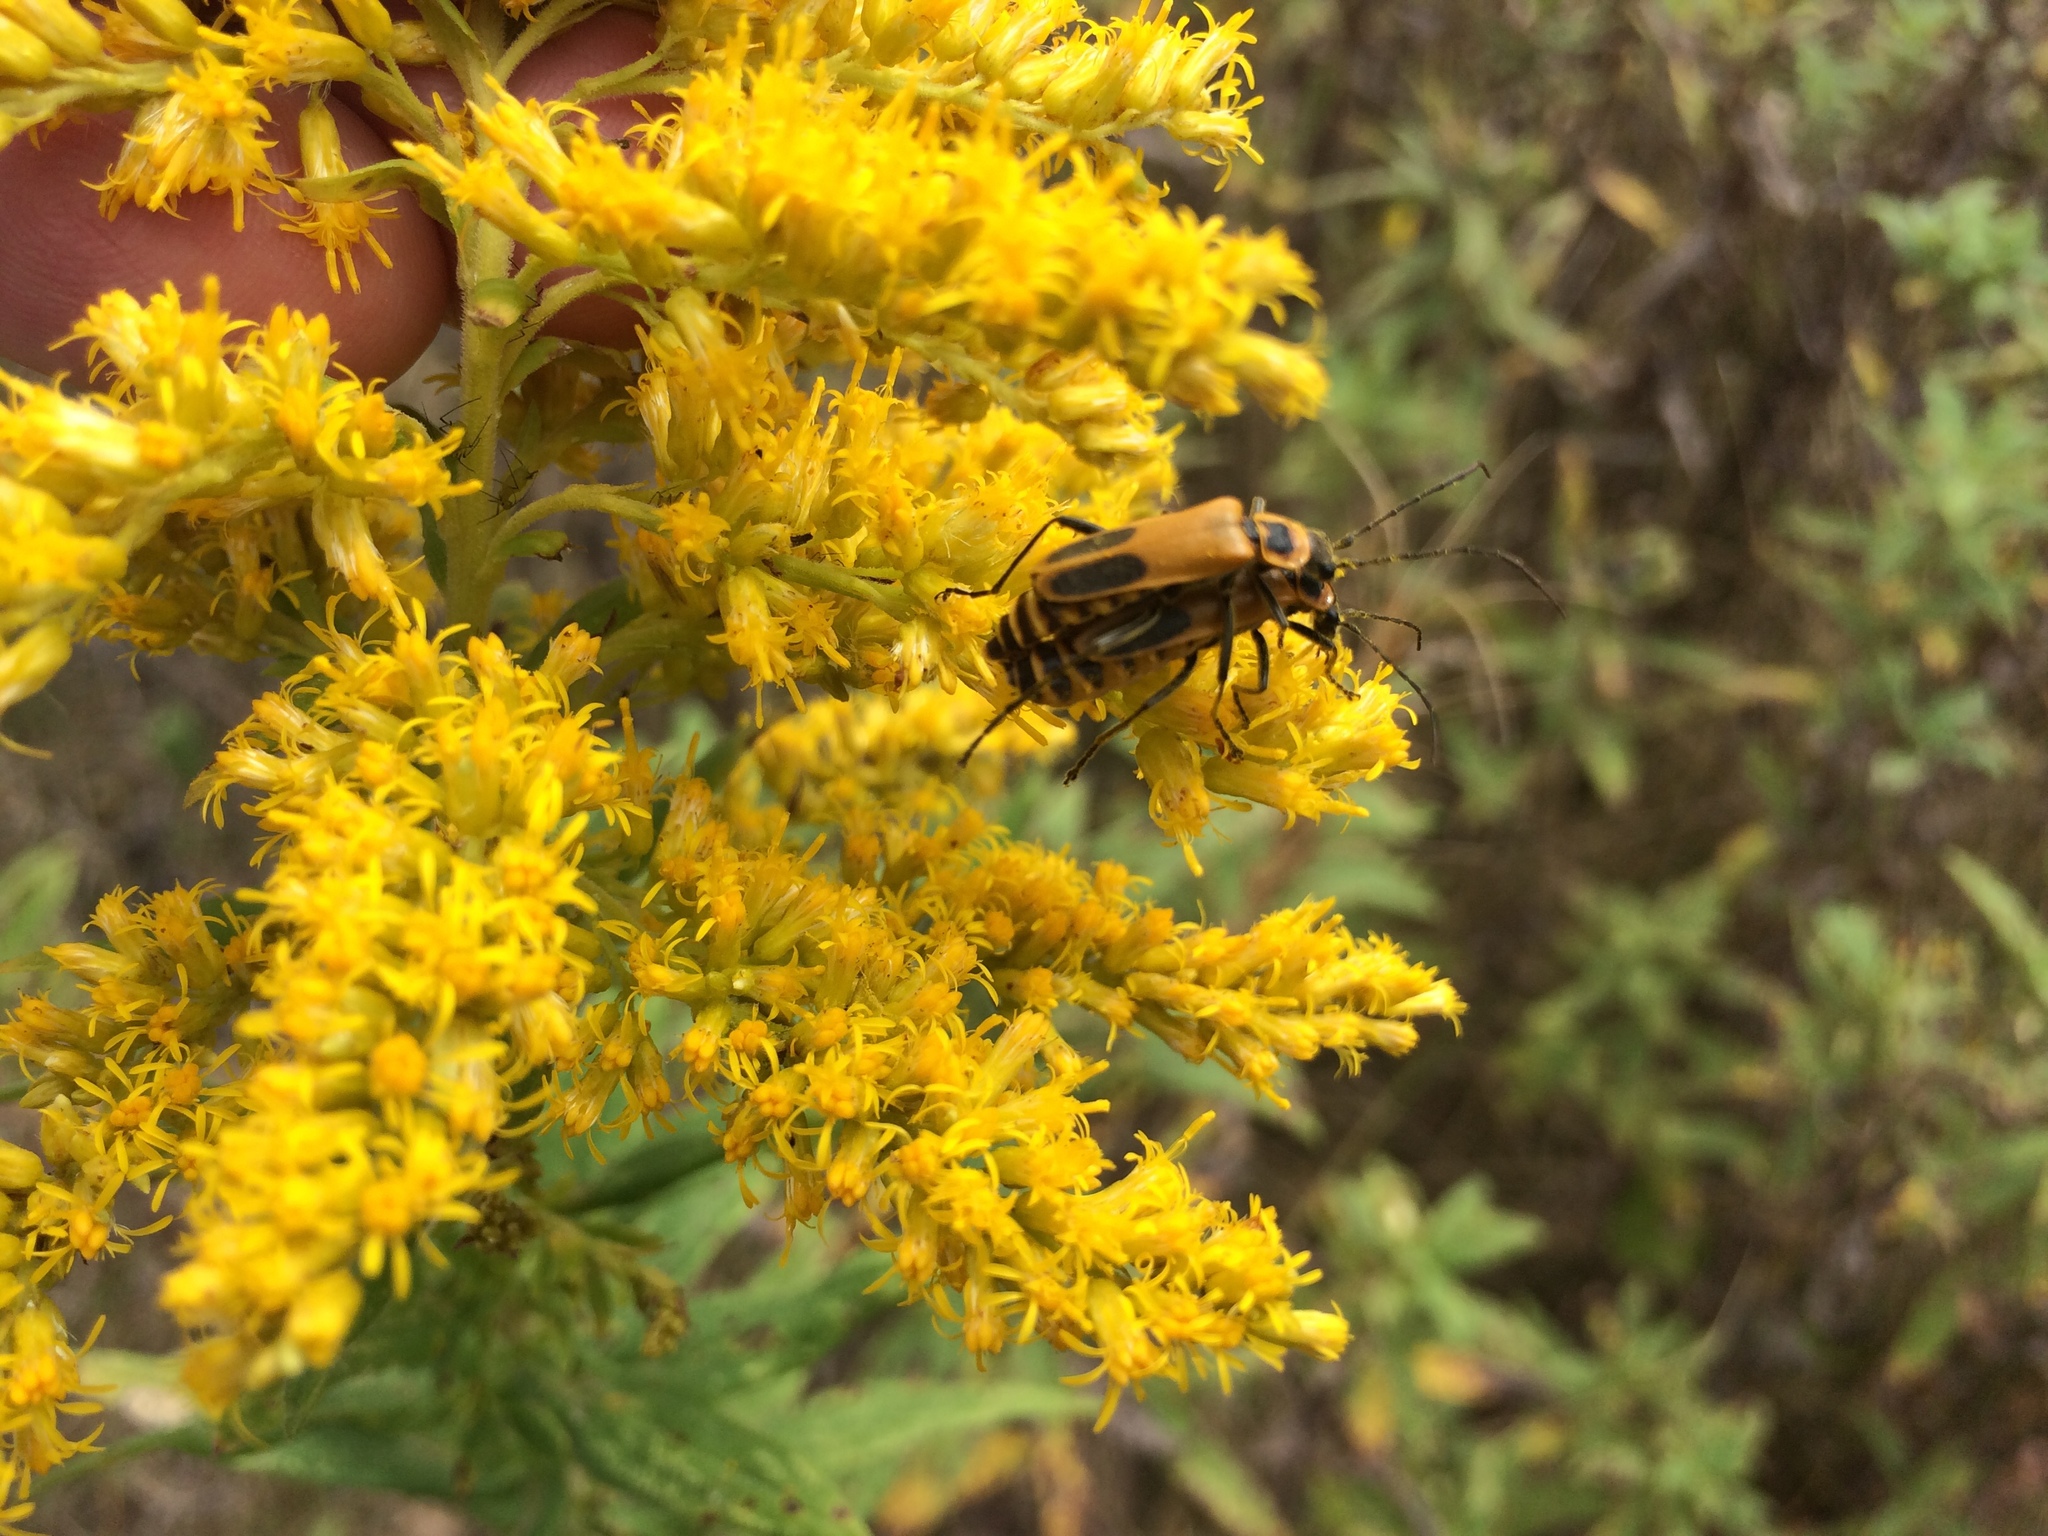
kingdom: Animalia
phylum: Arthropoda
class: Insecta
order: Coleoptera
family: Cantharidae
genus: Chauliognathus
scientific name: Chauliognathus pensylvanicus
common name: Goldenrod soldier beetle
